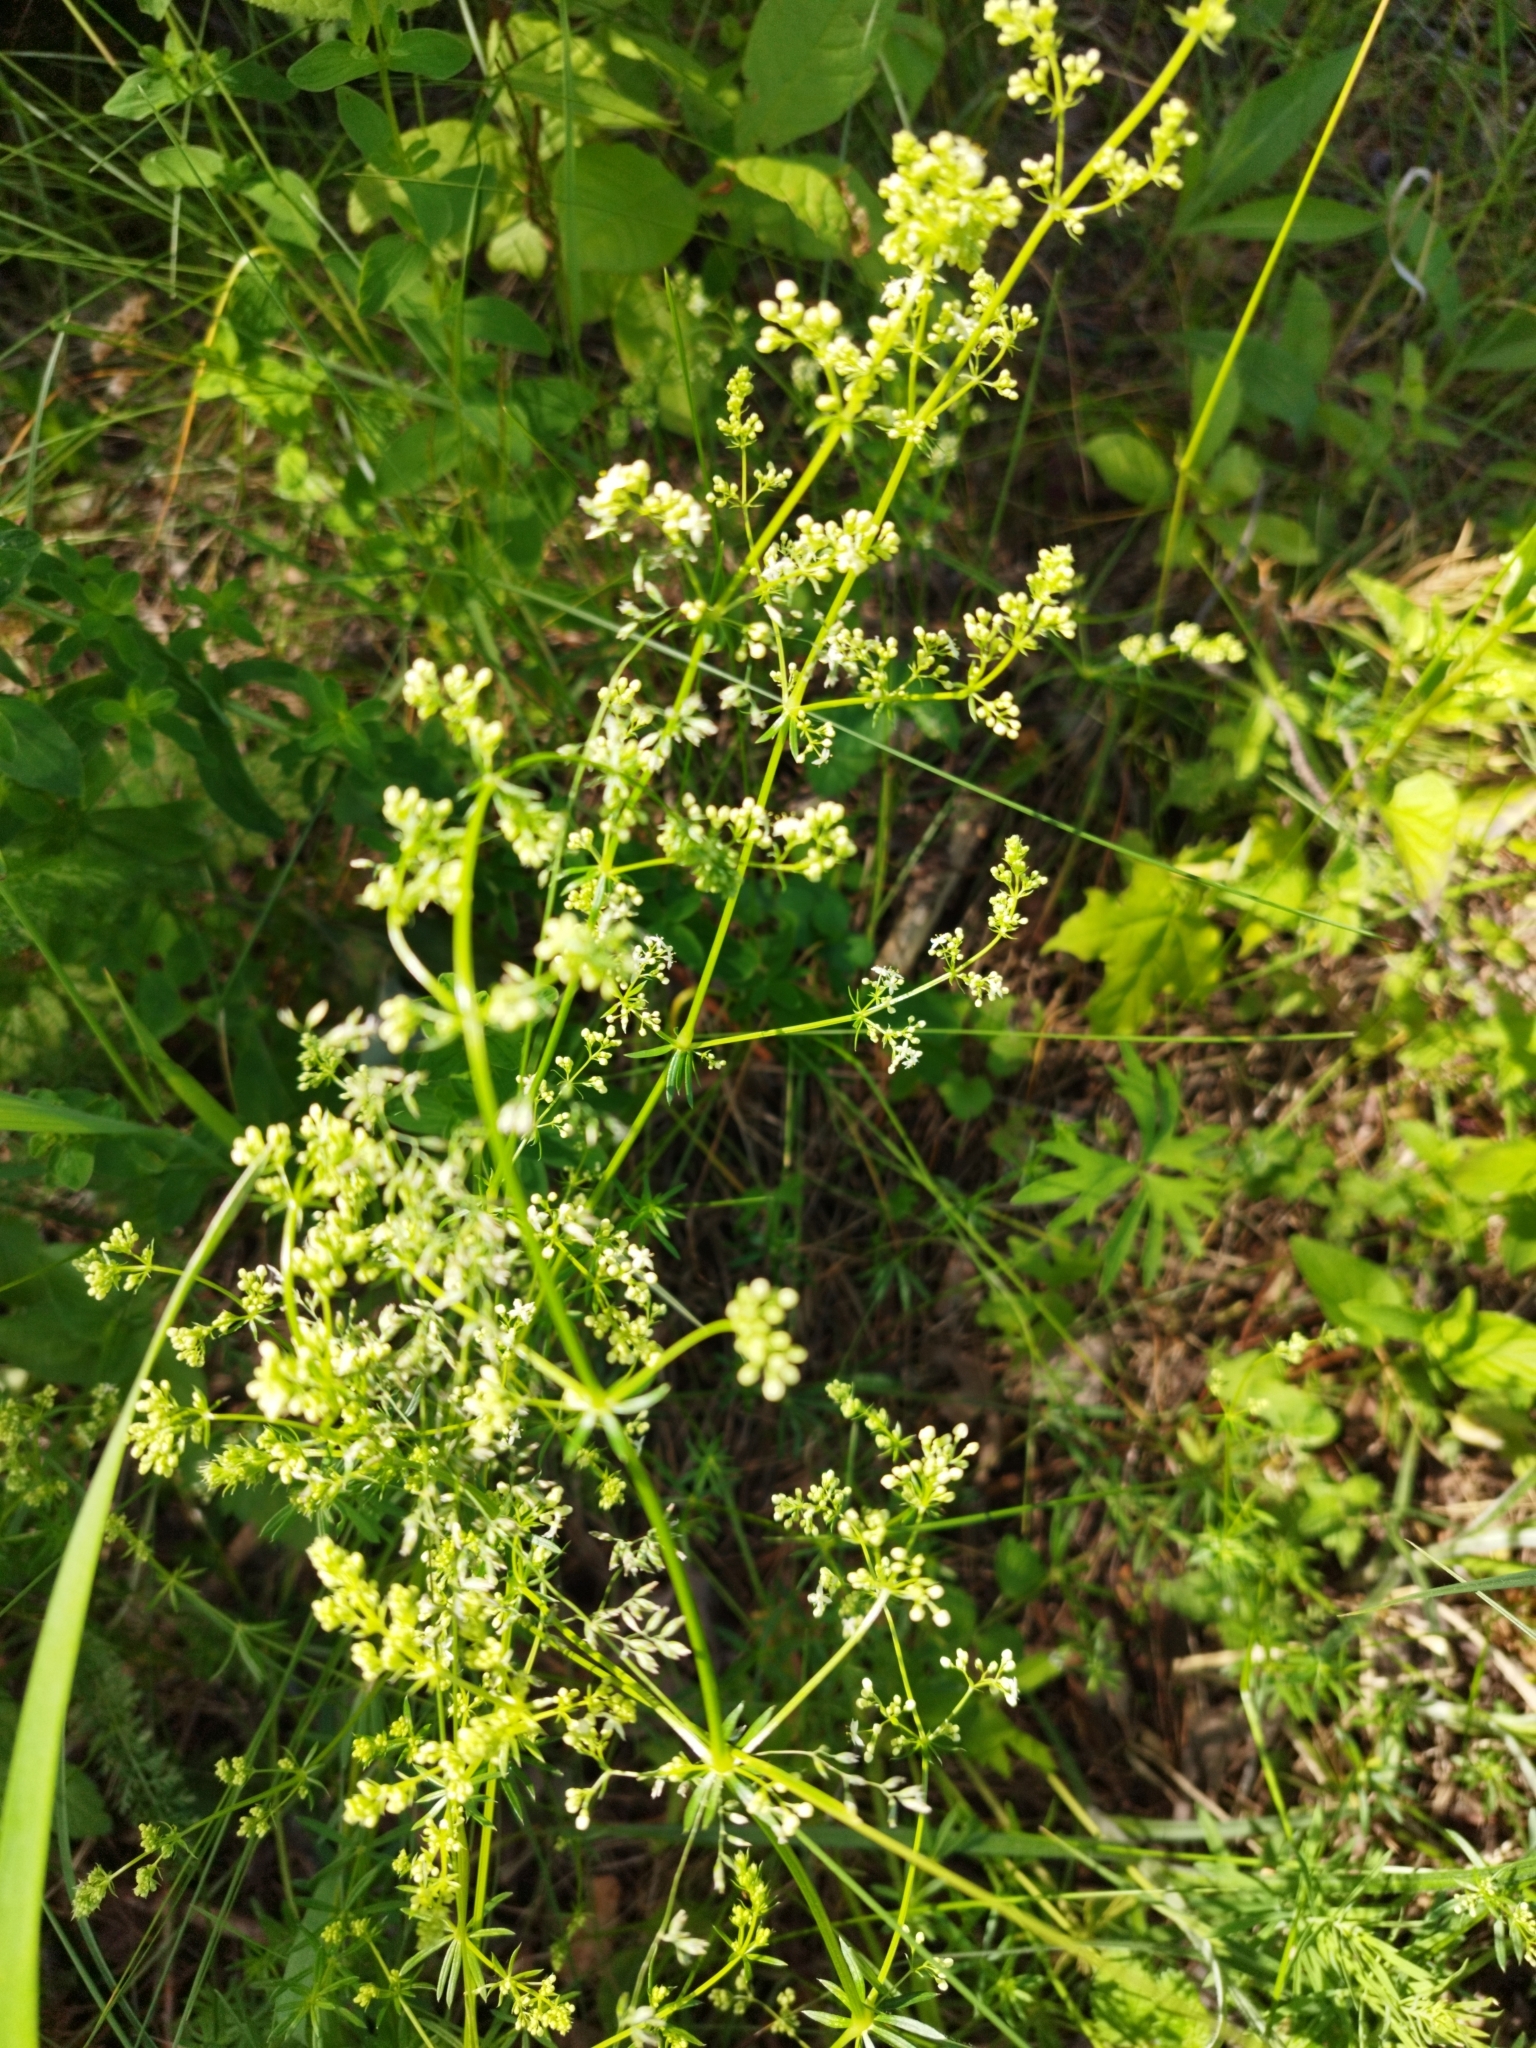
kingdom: Plantae
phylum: Tracheophyta
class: Magnoliopsida
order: Gentianales
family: Rubiaceae
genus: Galium
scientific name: Galium mollugo
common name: Hedge bedstraw
